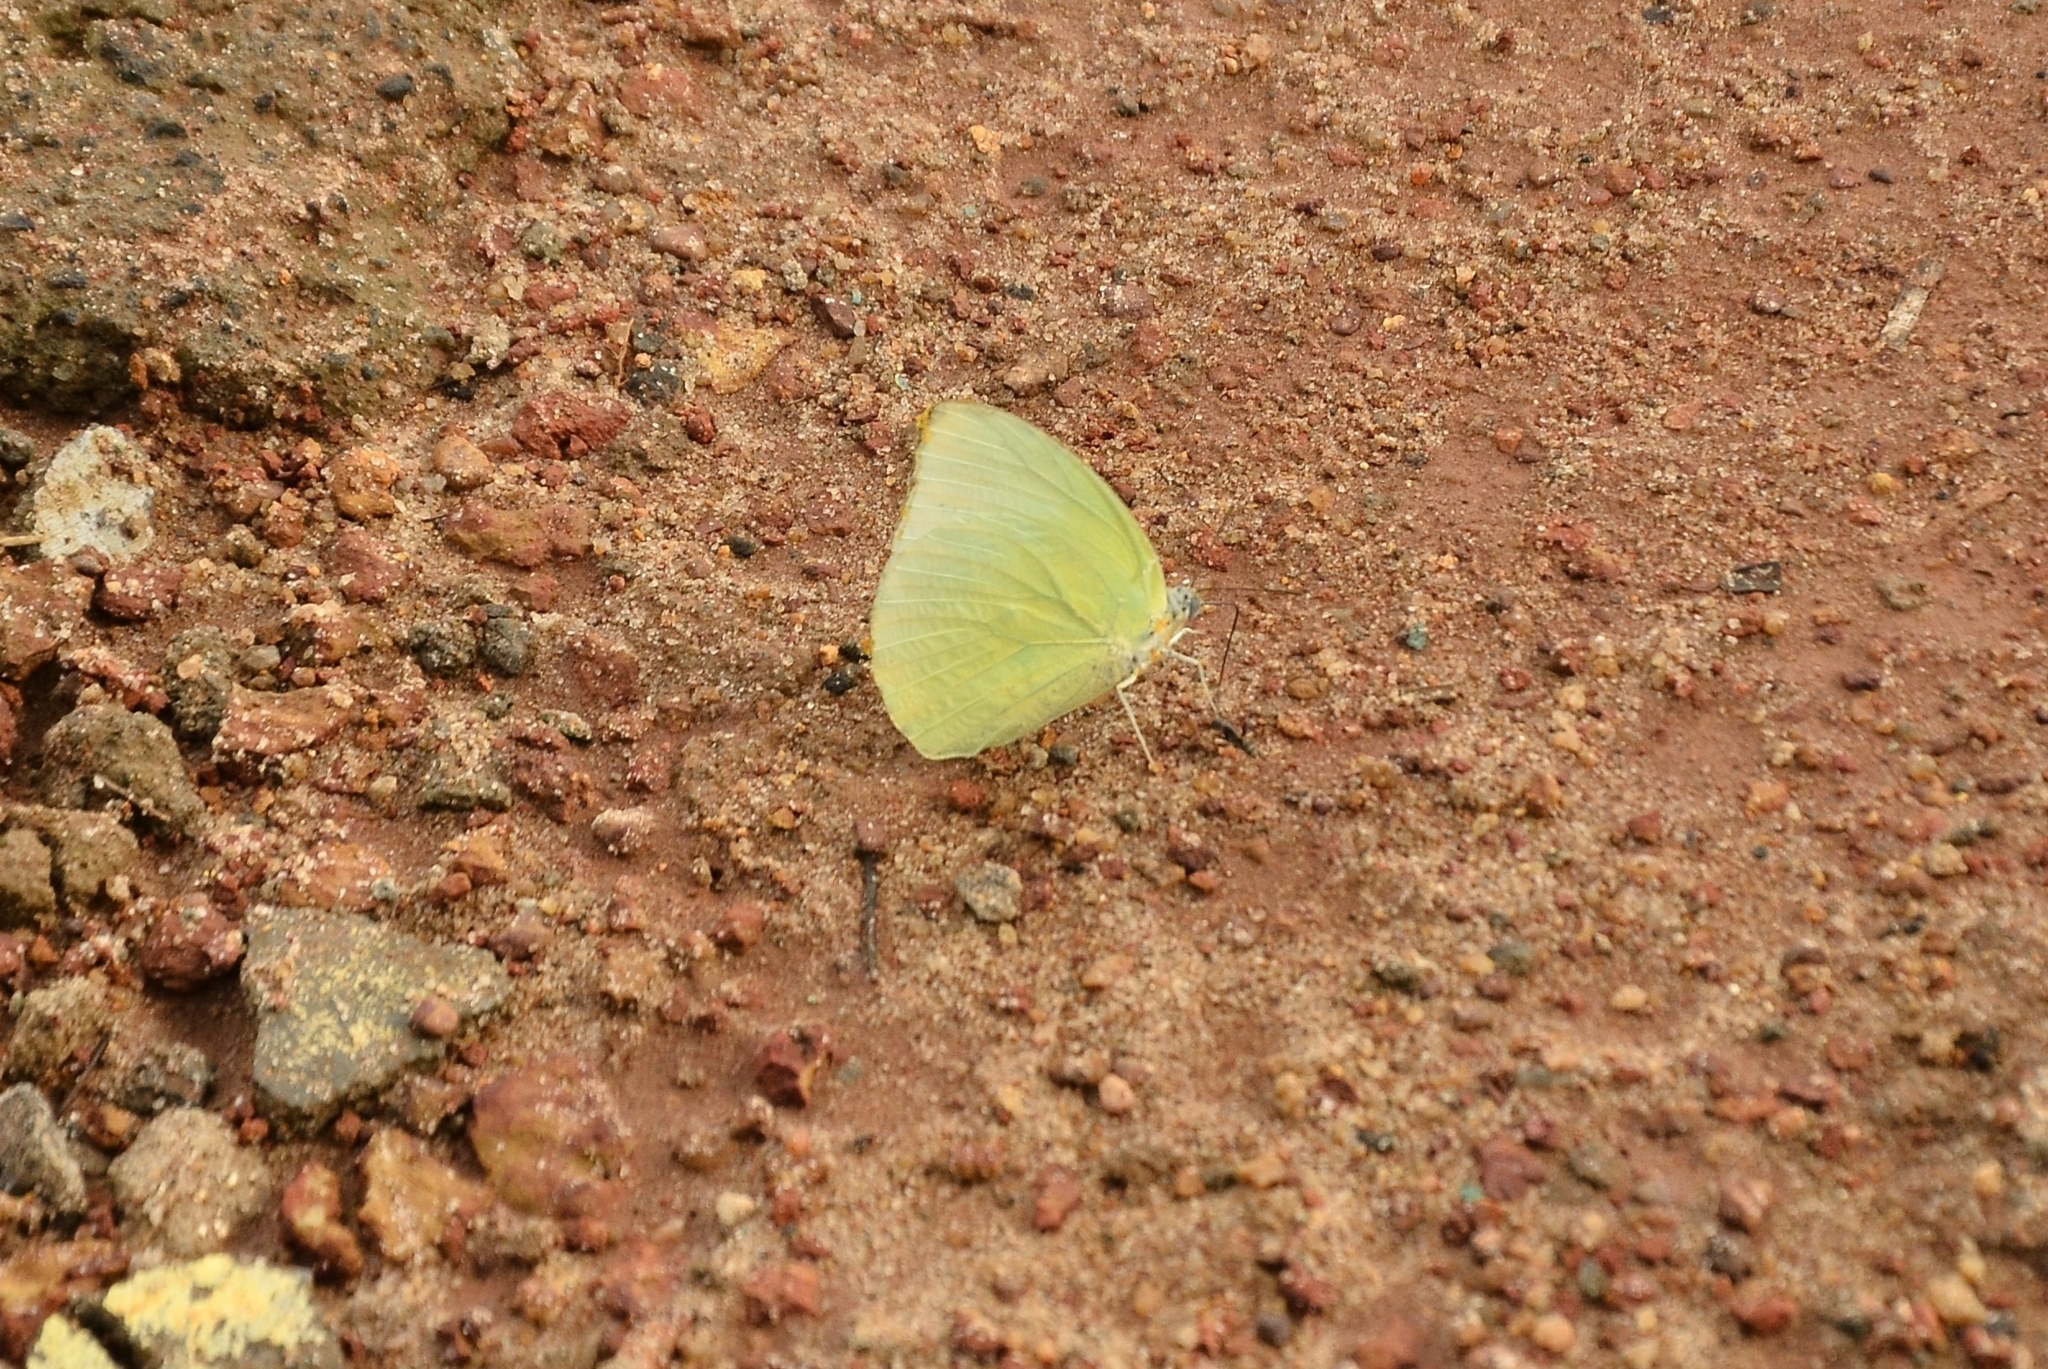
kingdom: Animalia
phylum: Arthropoda
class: Insecta
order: Lepidoptera
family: Pieridae
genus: Catopsilia
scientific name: Catopsilia pomona
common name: Common emigrant
